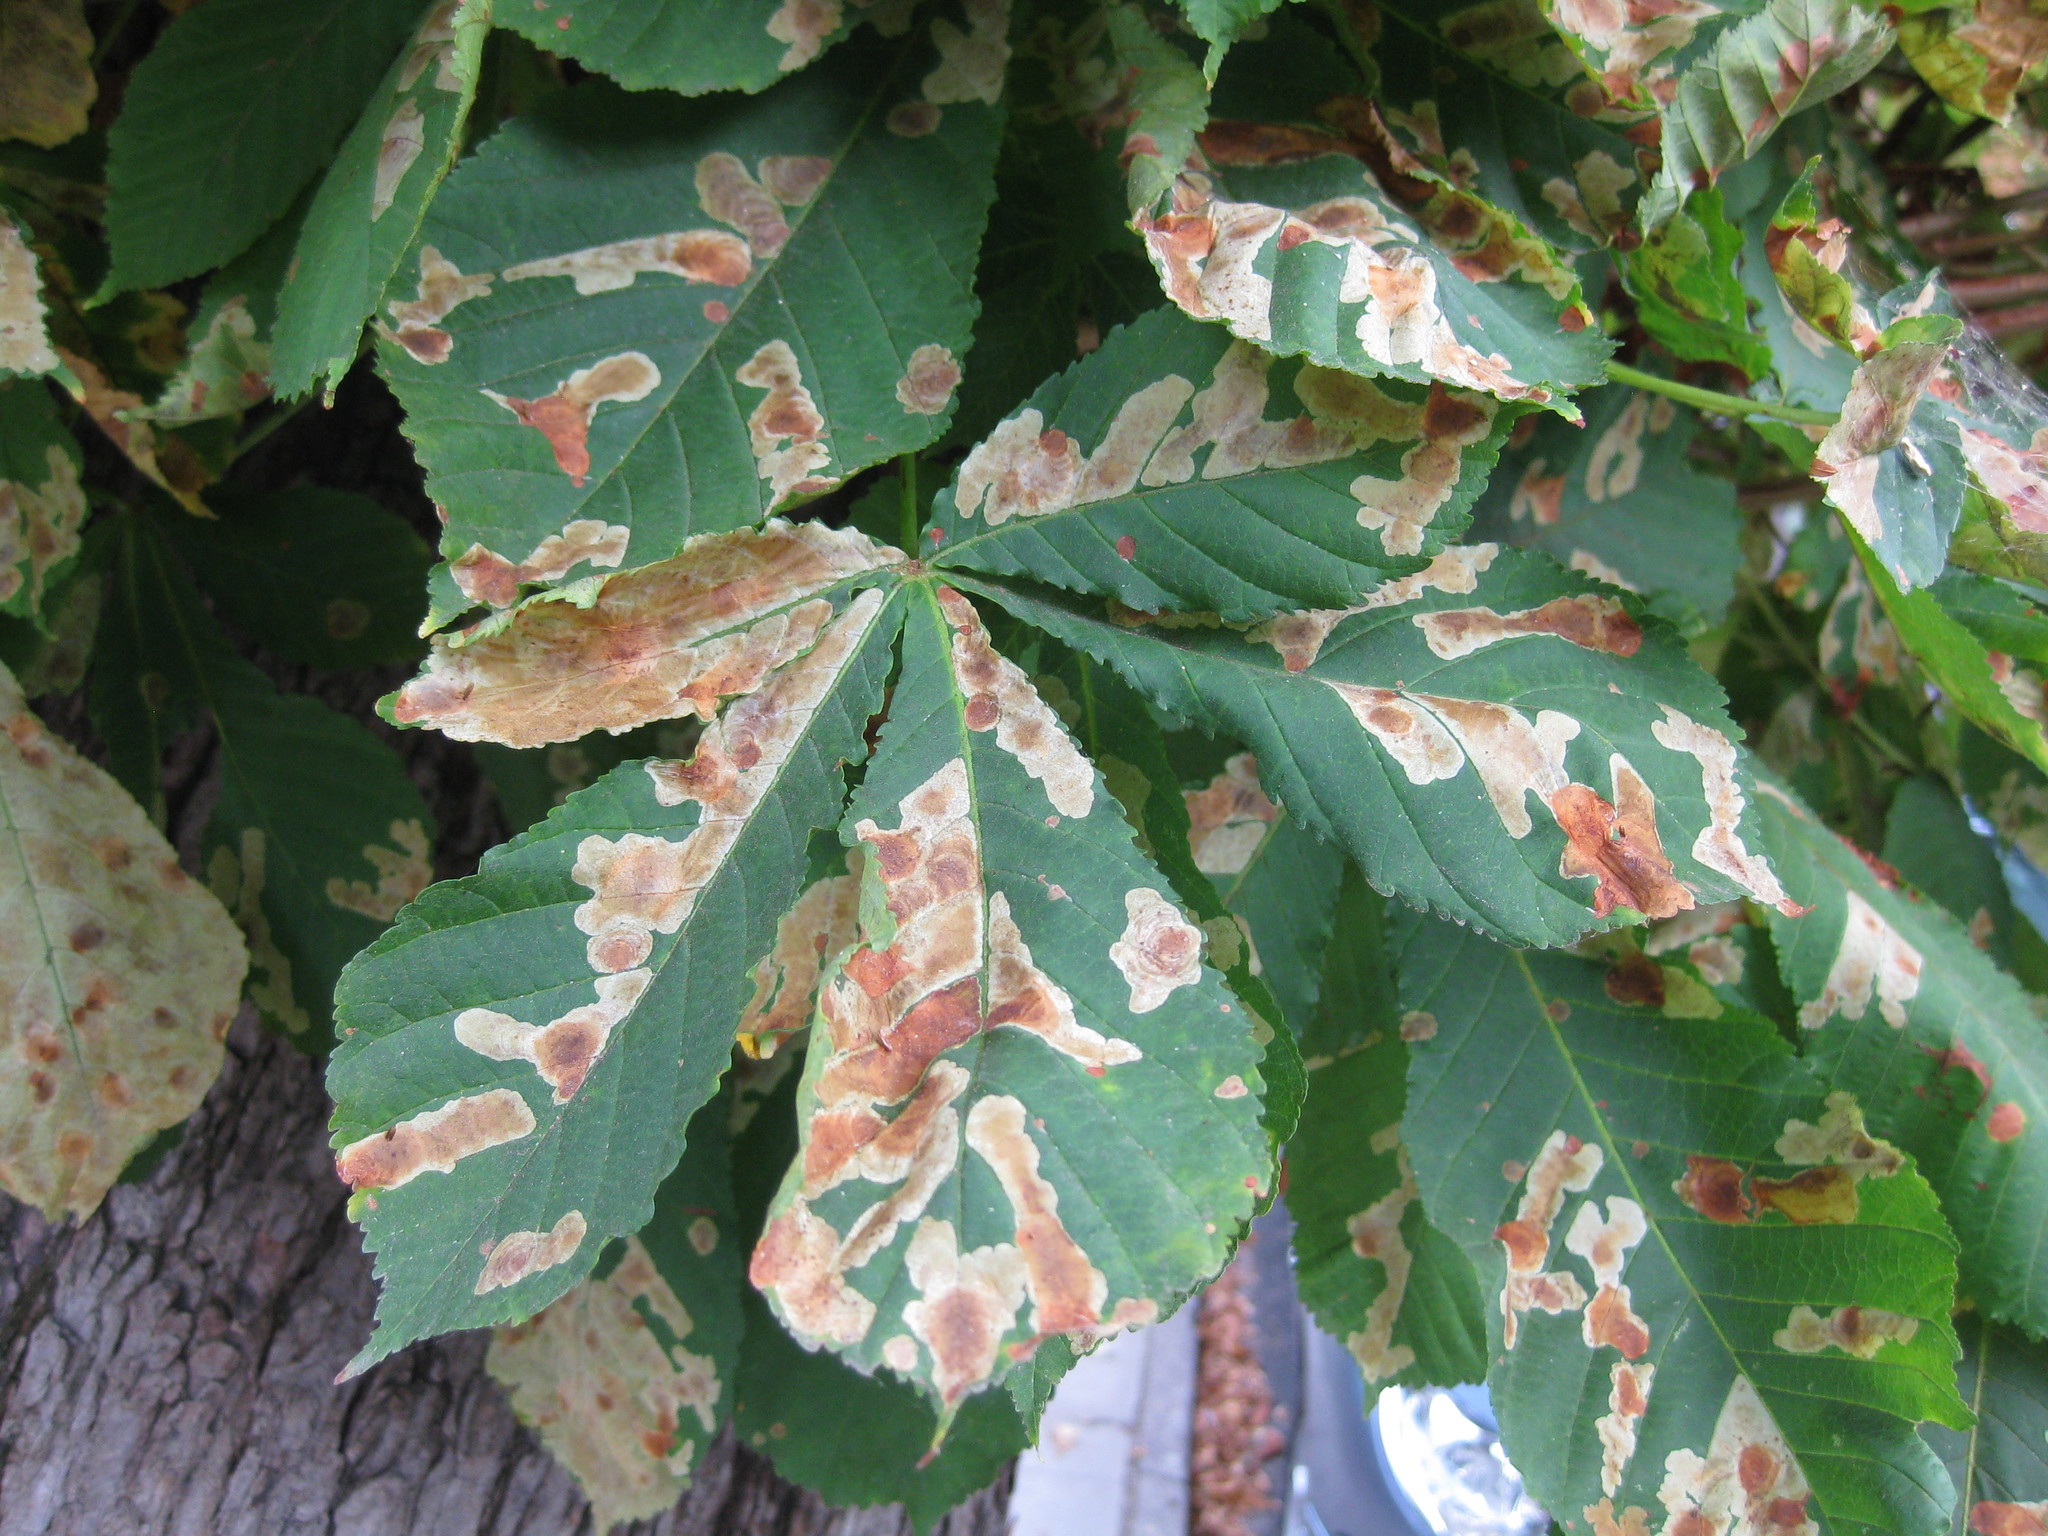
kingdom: Animalia
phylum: Arthropoda
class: Insecta
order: Lepidoptera
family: Gracillariidae
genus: Cameraria
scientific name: Cameraria ohridella
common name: Horse-chestnut leaf-miner
